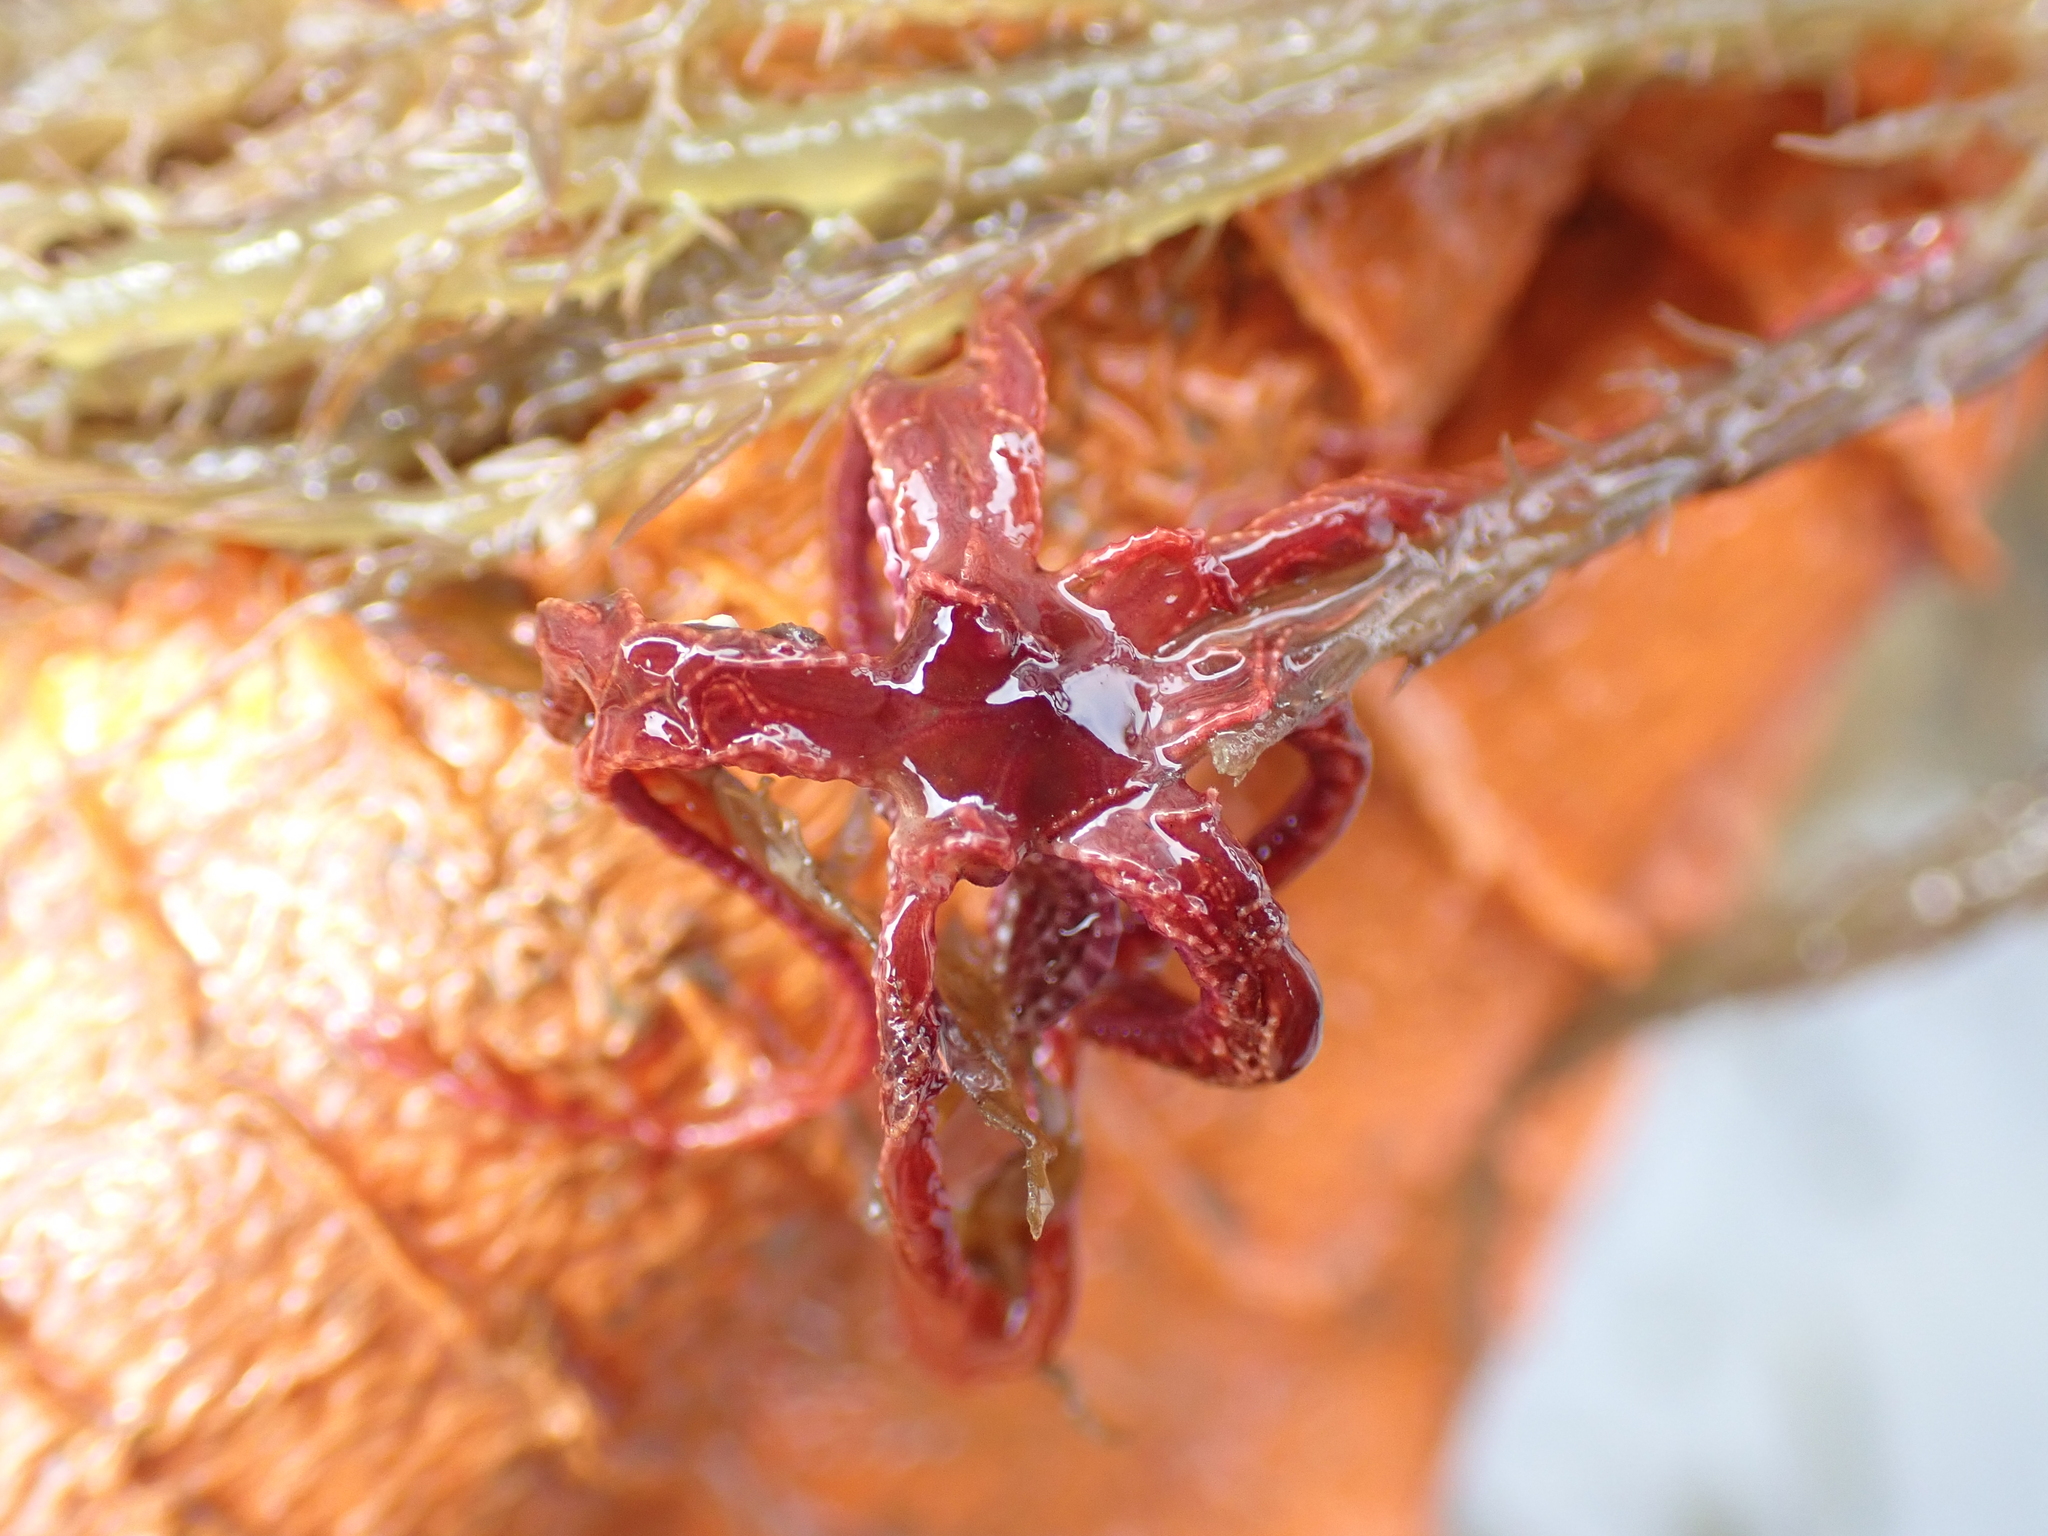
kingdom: Animalia
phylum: Echinodermata
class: Crinoidea
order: Comatulida
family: Antedonidae
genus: Antedon
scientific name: Antedon bifida
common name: Rosy feather-star
